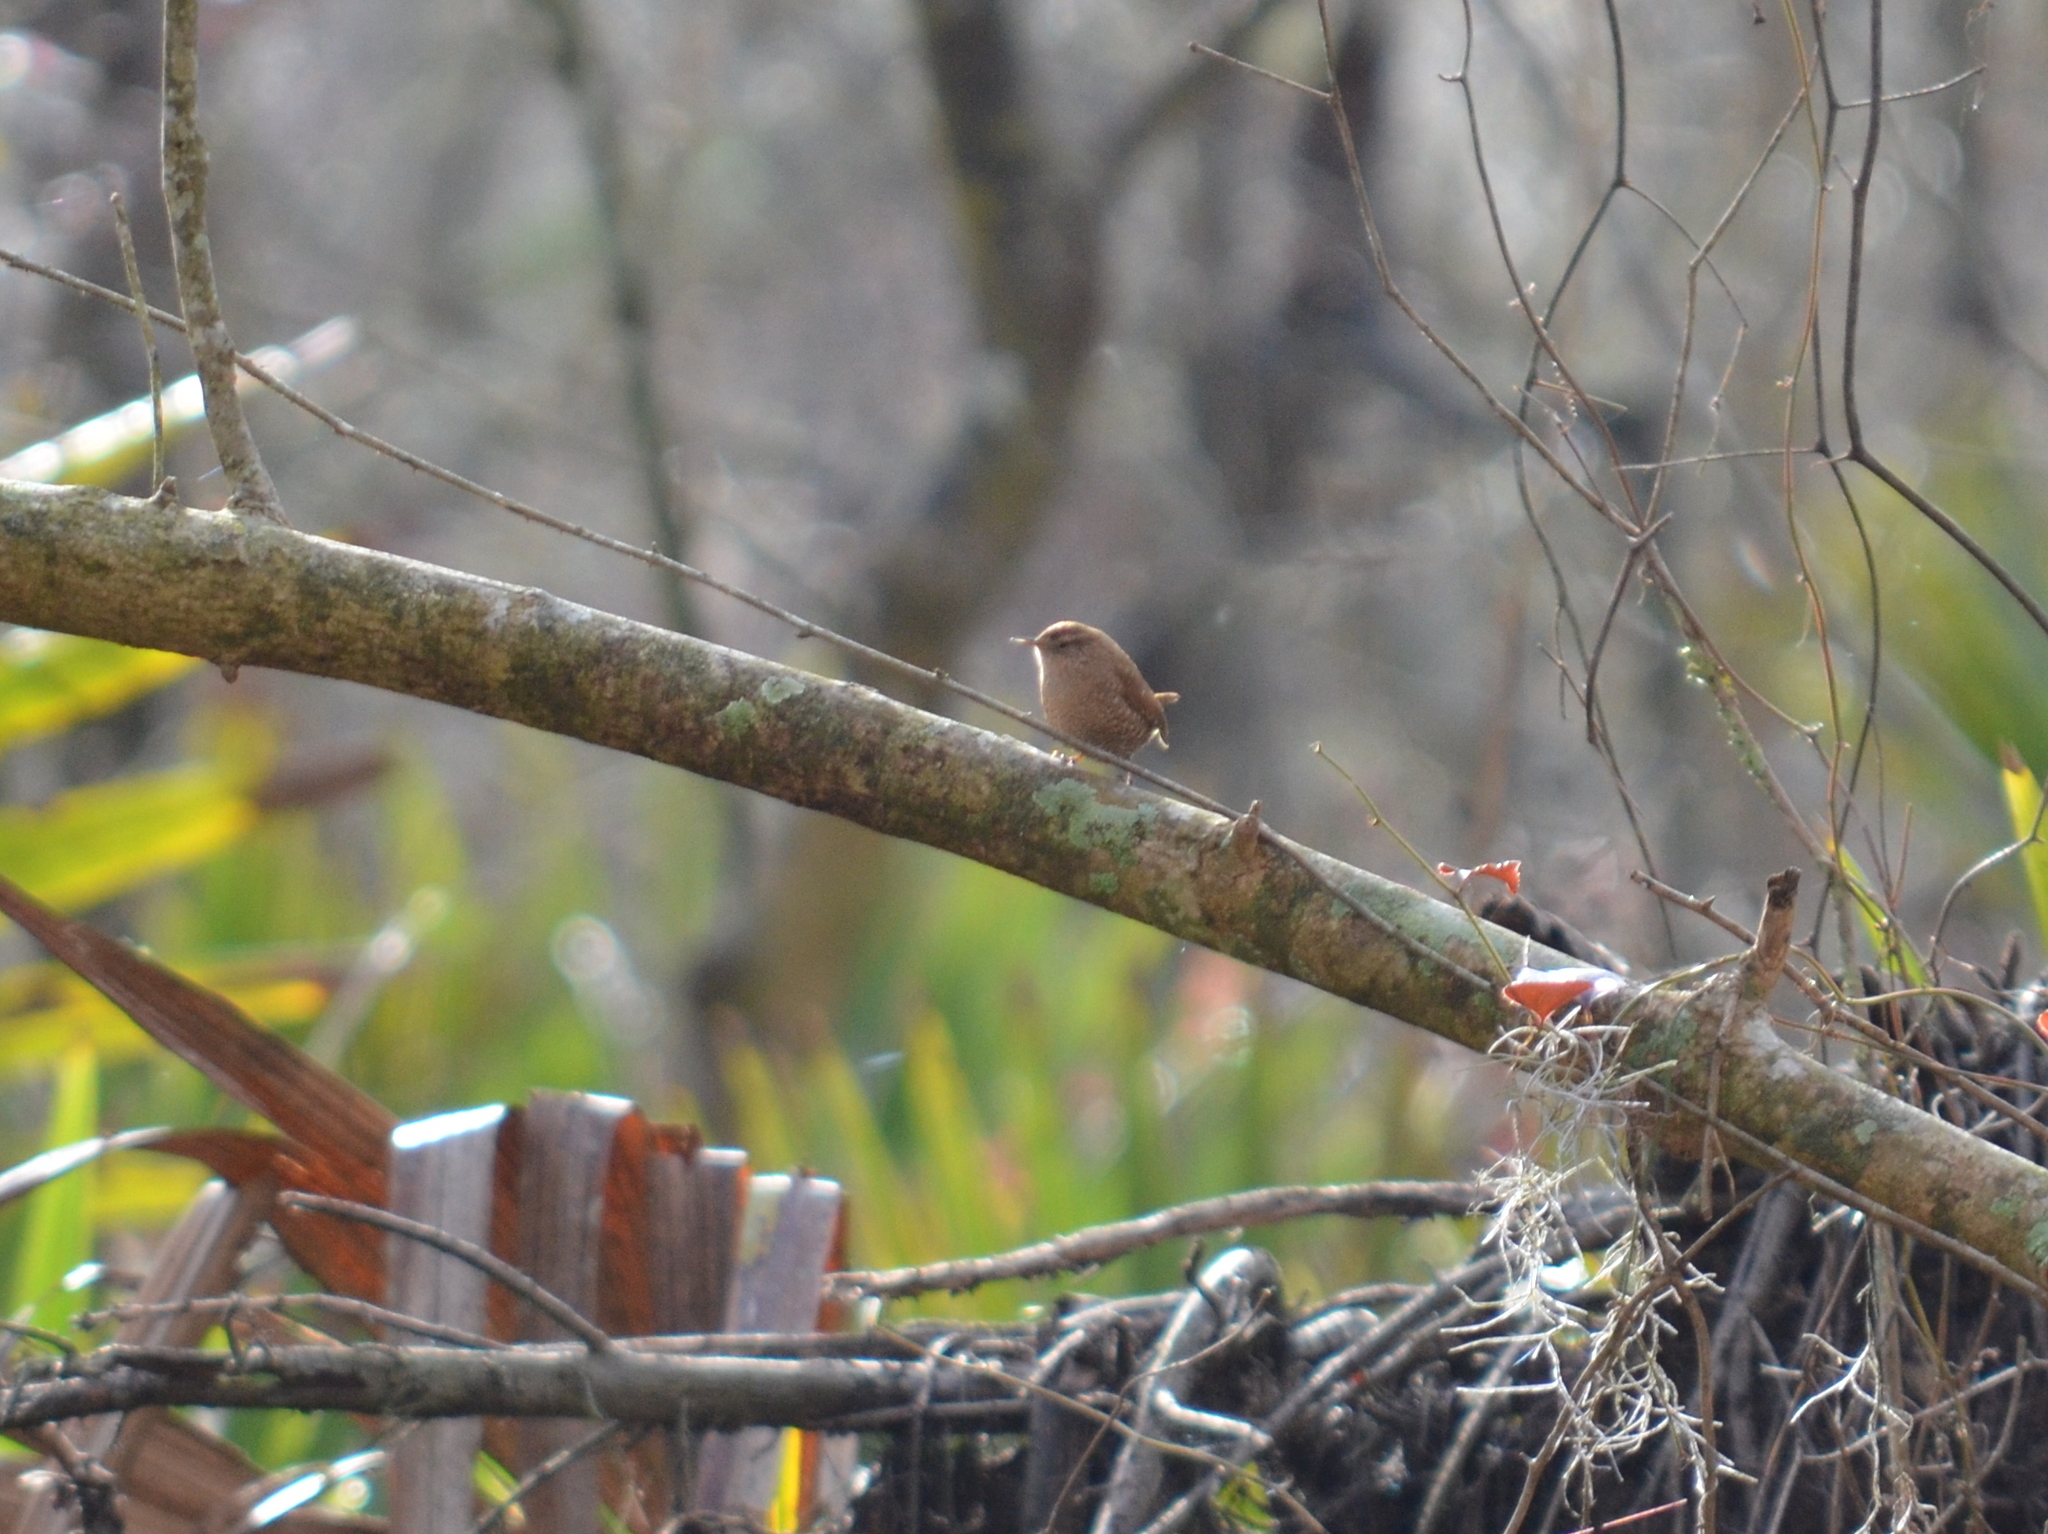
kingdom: Animalia
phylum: Chordata
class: Aves
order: Passeriformes
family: Troglodytidae
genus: Troglodytes
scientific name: Troglodytes hiemalis
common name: Winter wren
